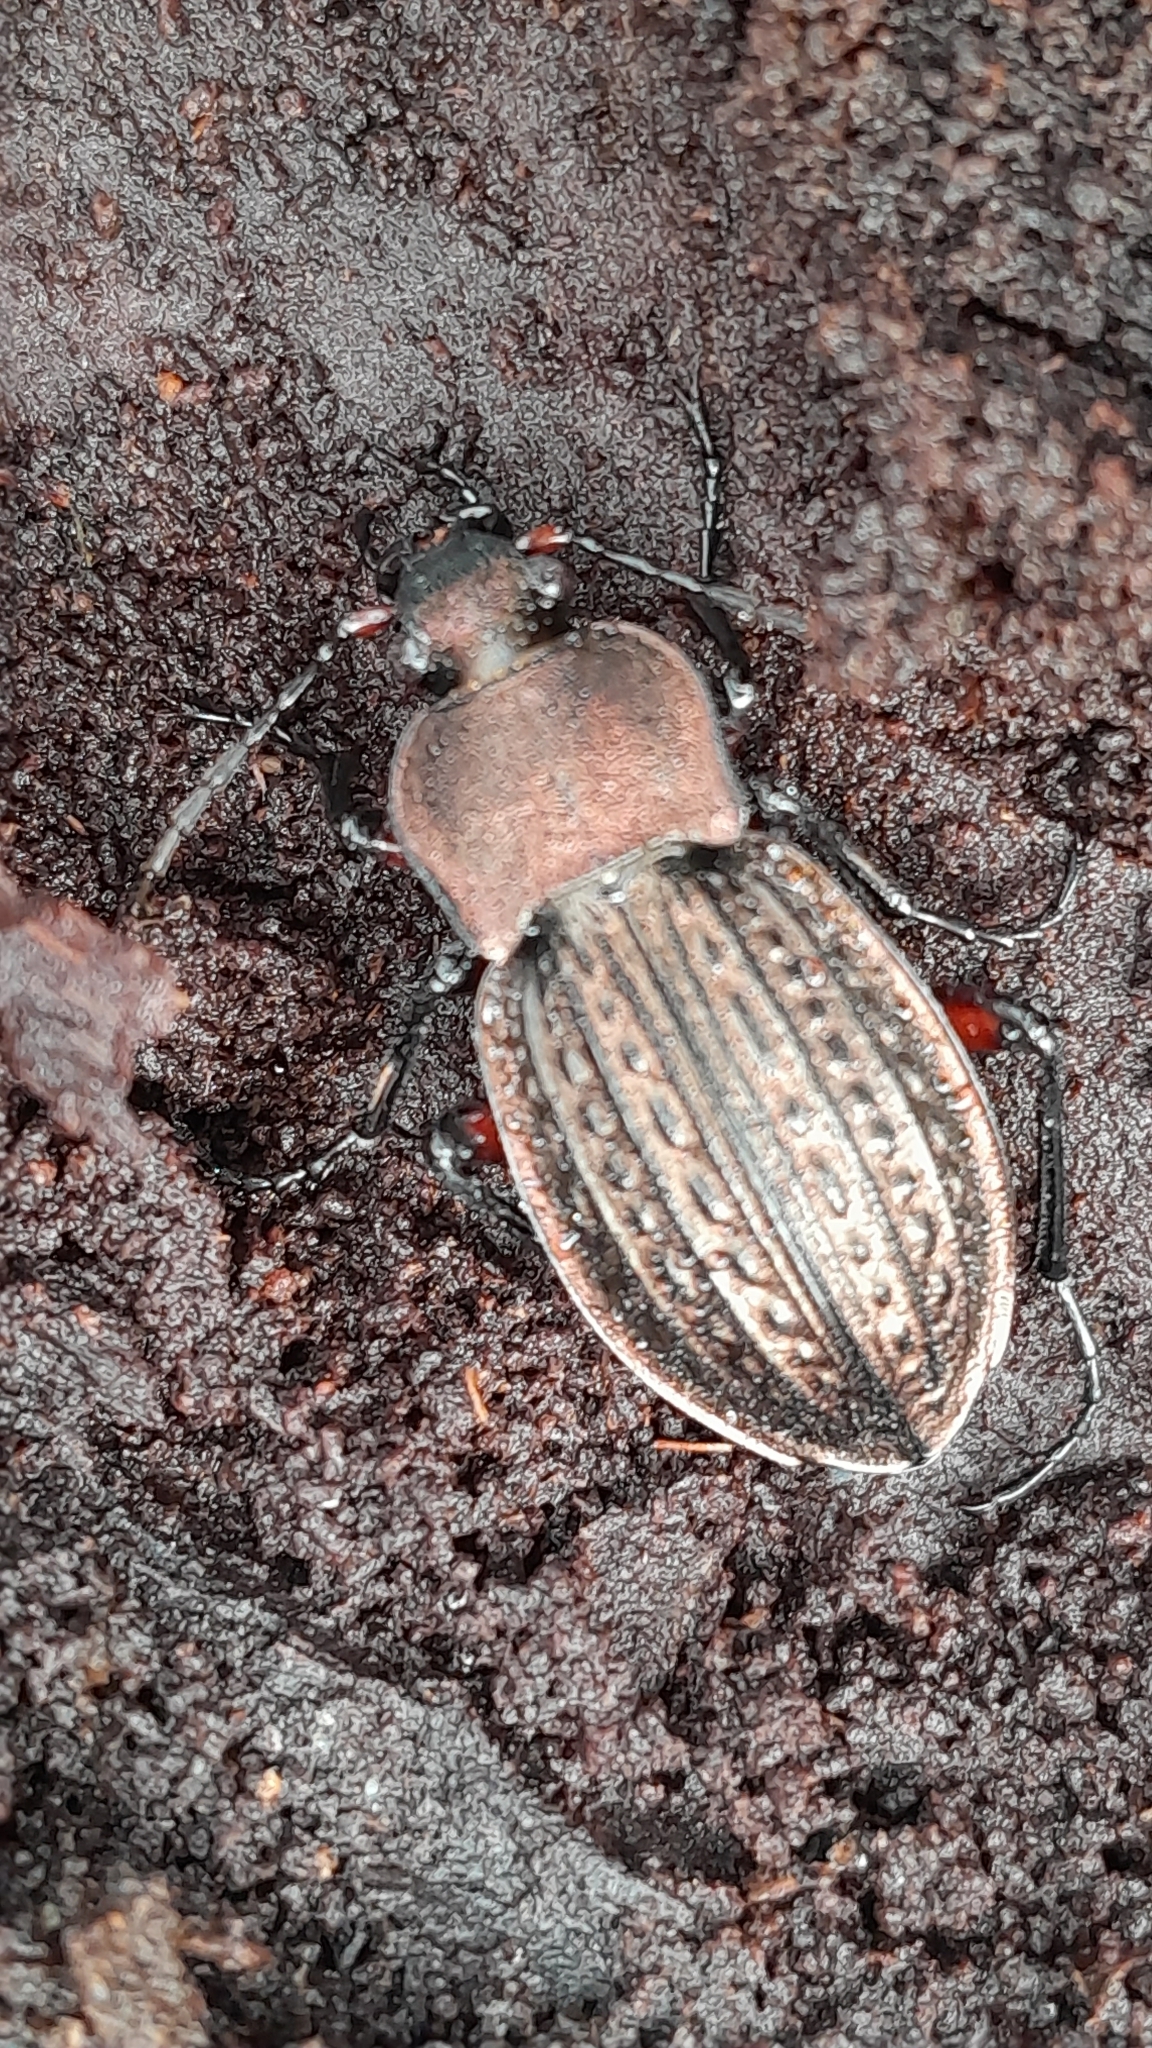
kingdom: Animalia
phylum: Arthropoda
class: Insecta
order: Coleoptera
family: Carabidae
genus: Carabus
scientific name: Carabus cancellatus
